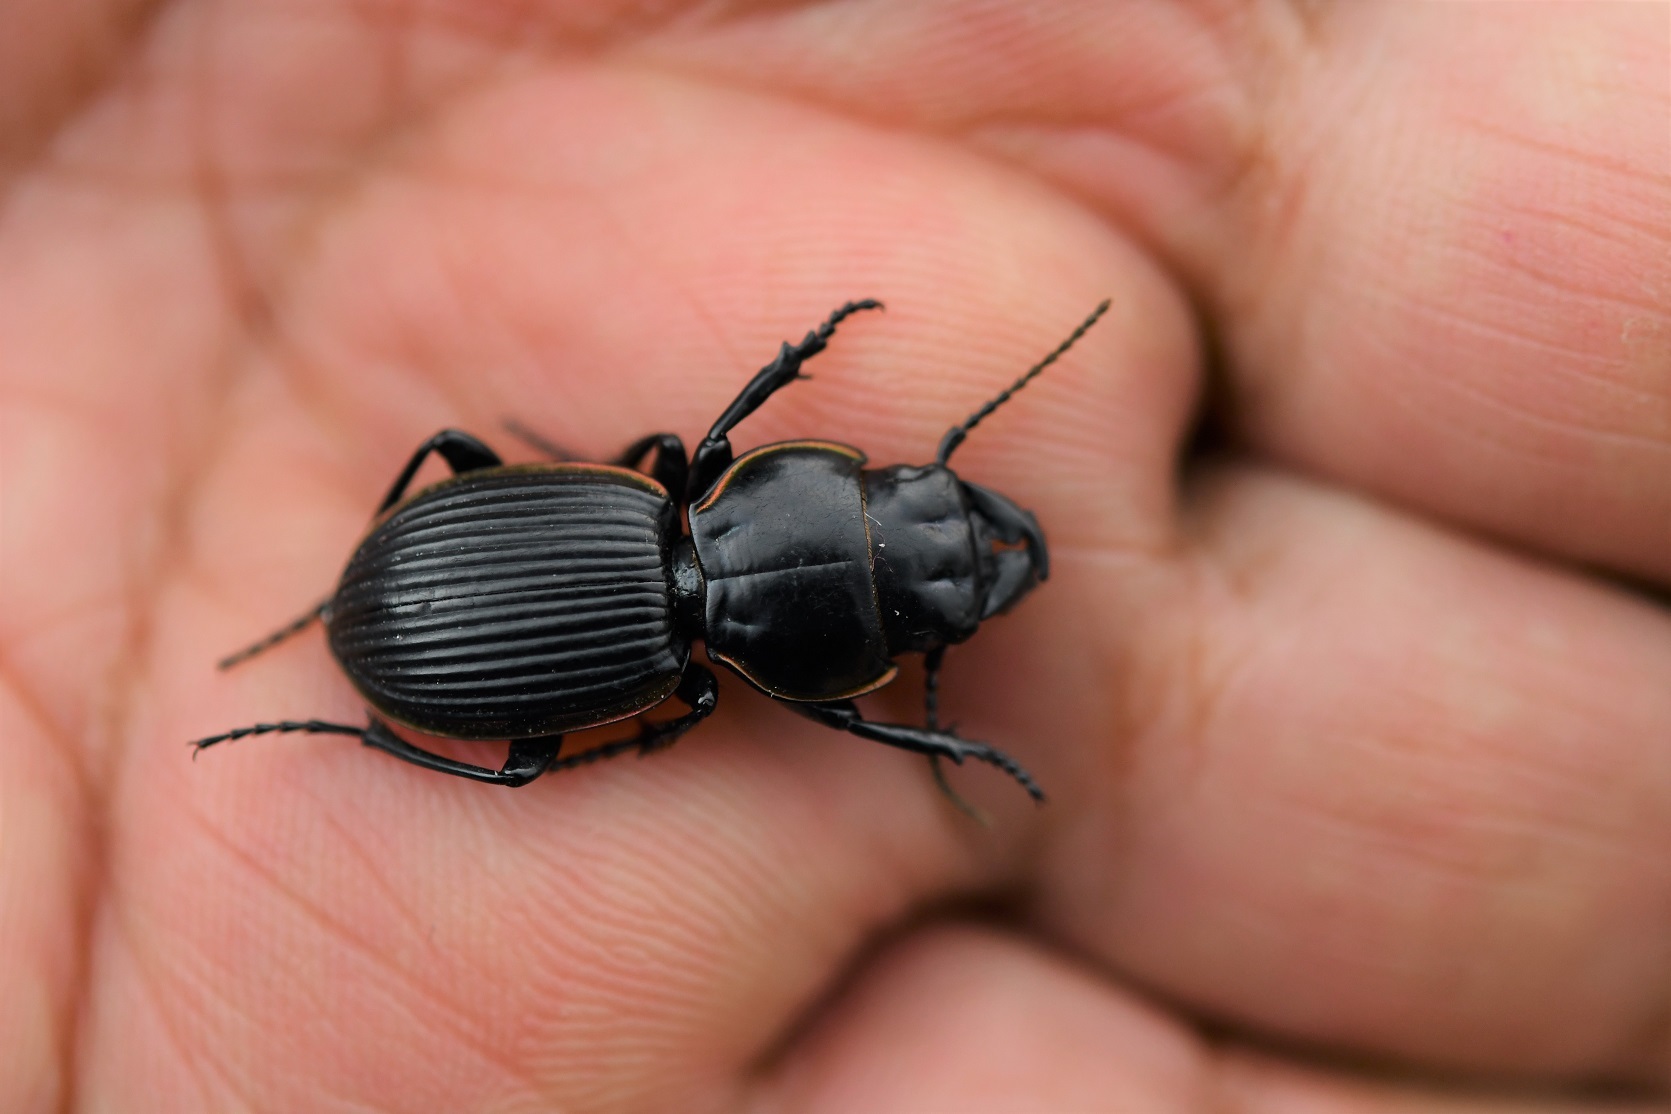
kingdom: Animalia
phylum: Arthropoda
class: Insecta
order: Coleoptera
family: Carabidae
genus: Pasimachus
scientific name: Pasimachus cardioderus
